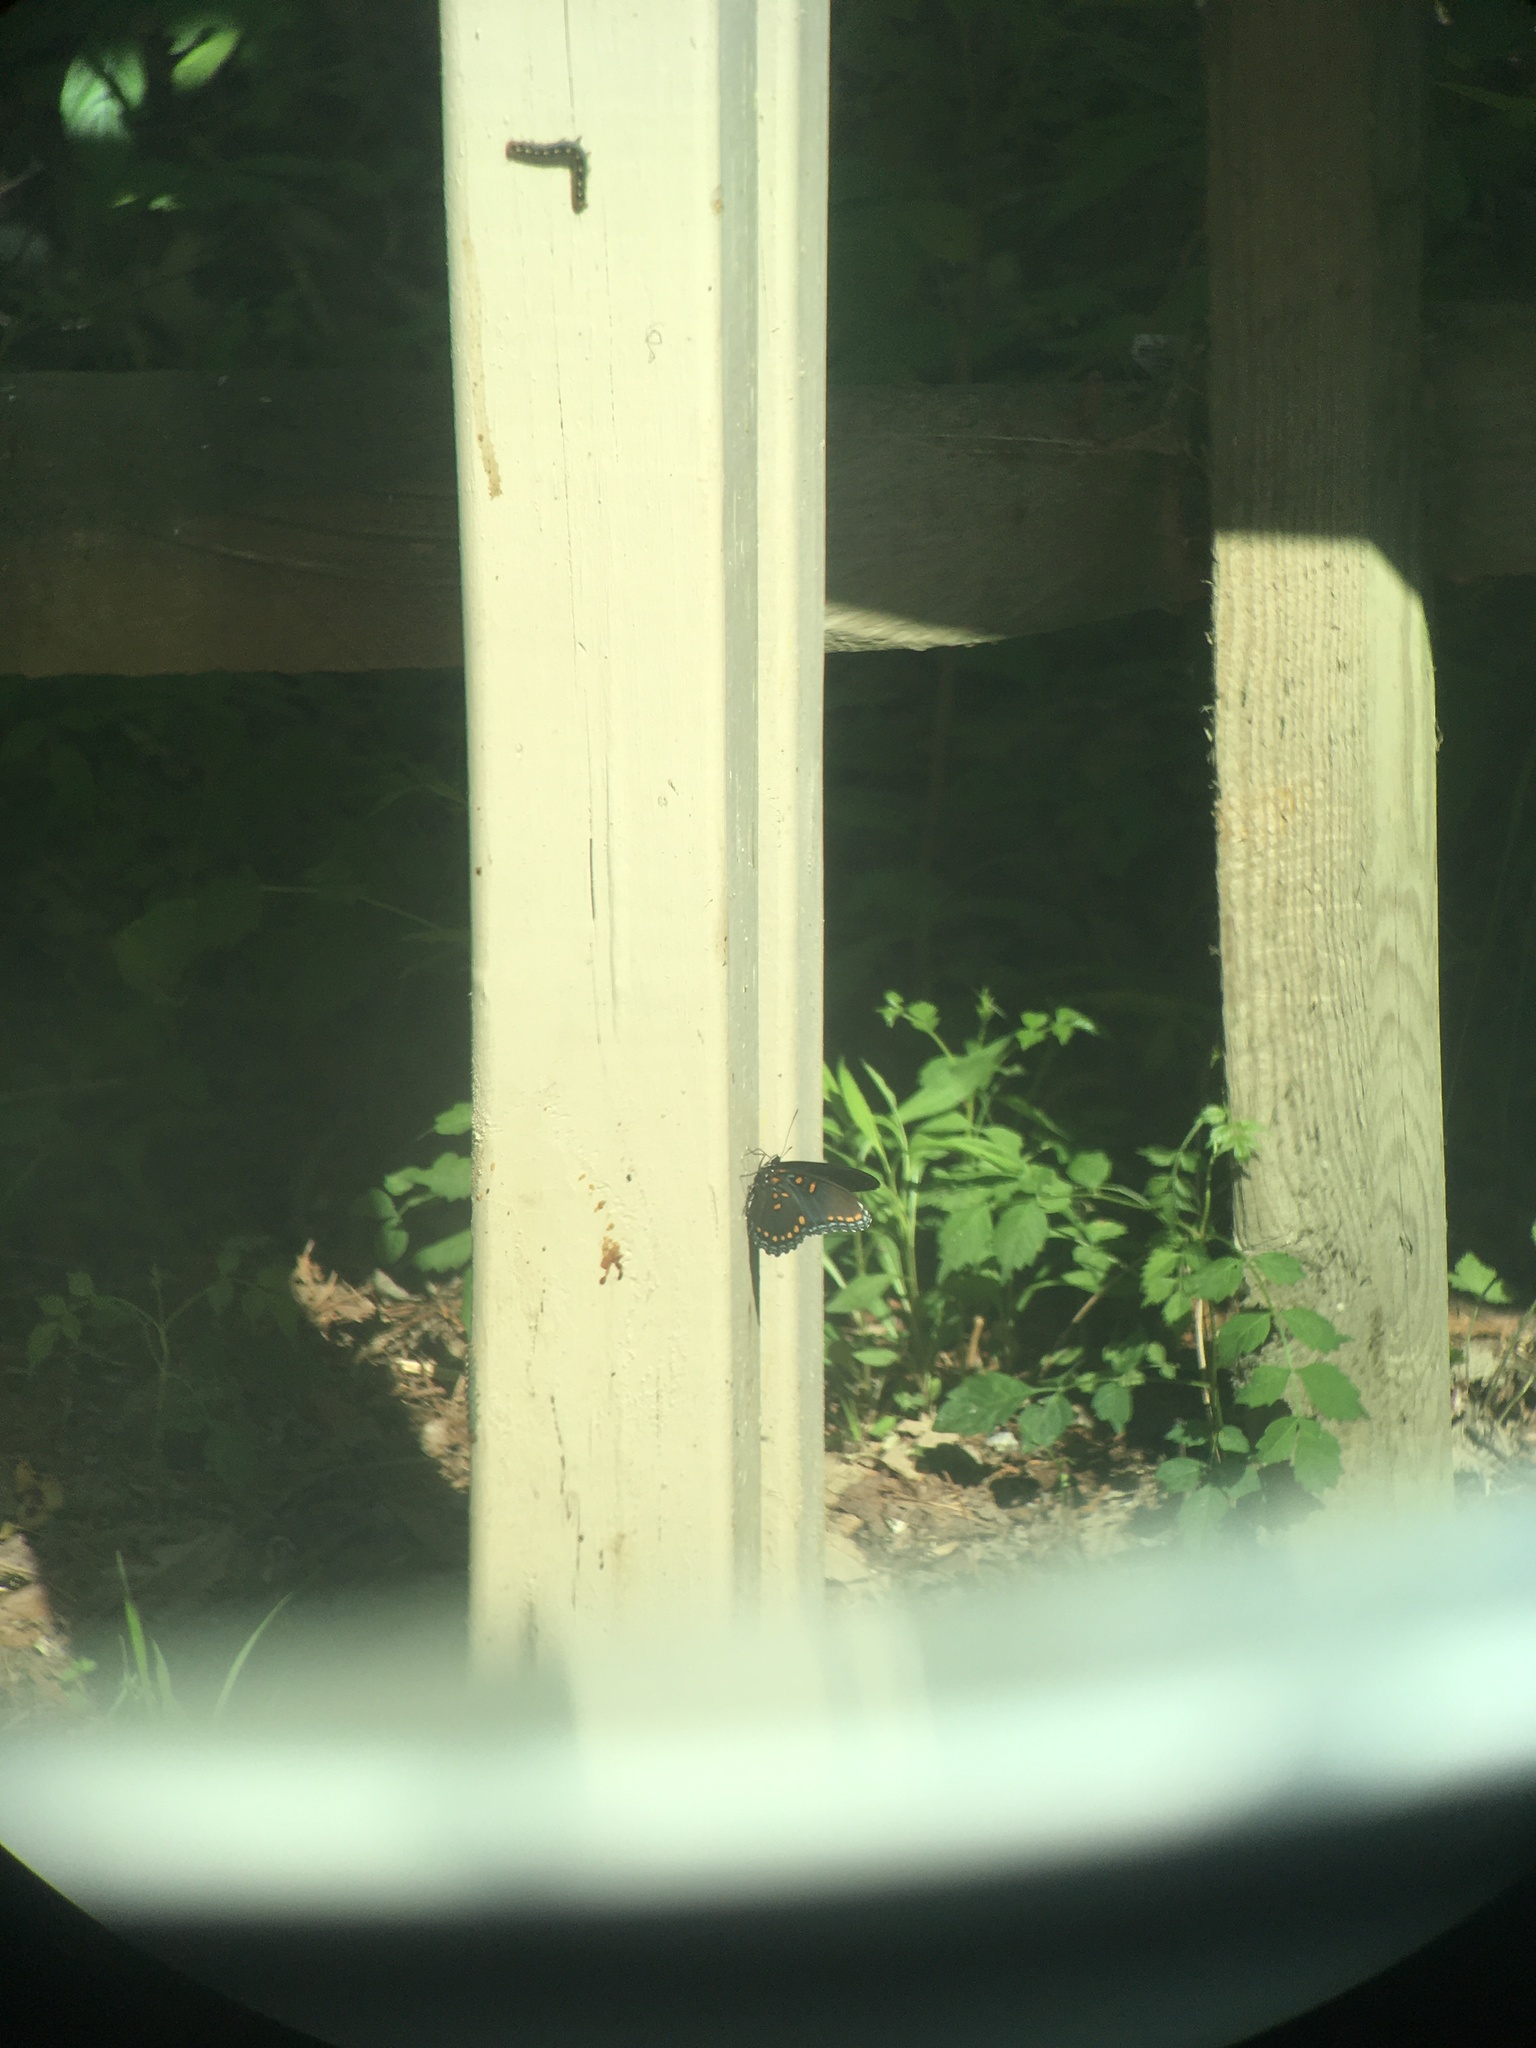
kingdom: Animalia
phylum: Arthropoda
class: Insecta
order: Lepidoptera
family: Nymphalidae
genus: Limenitis
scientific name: Limenitis astyanax
